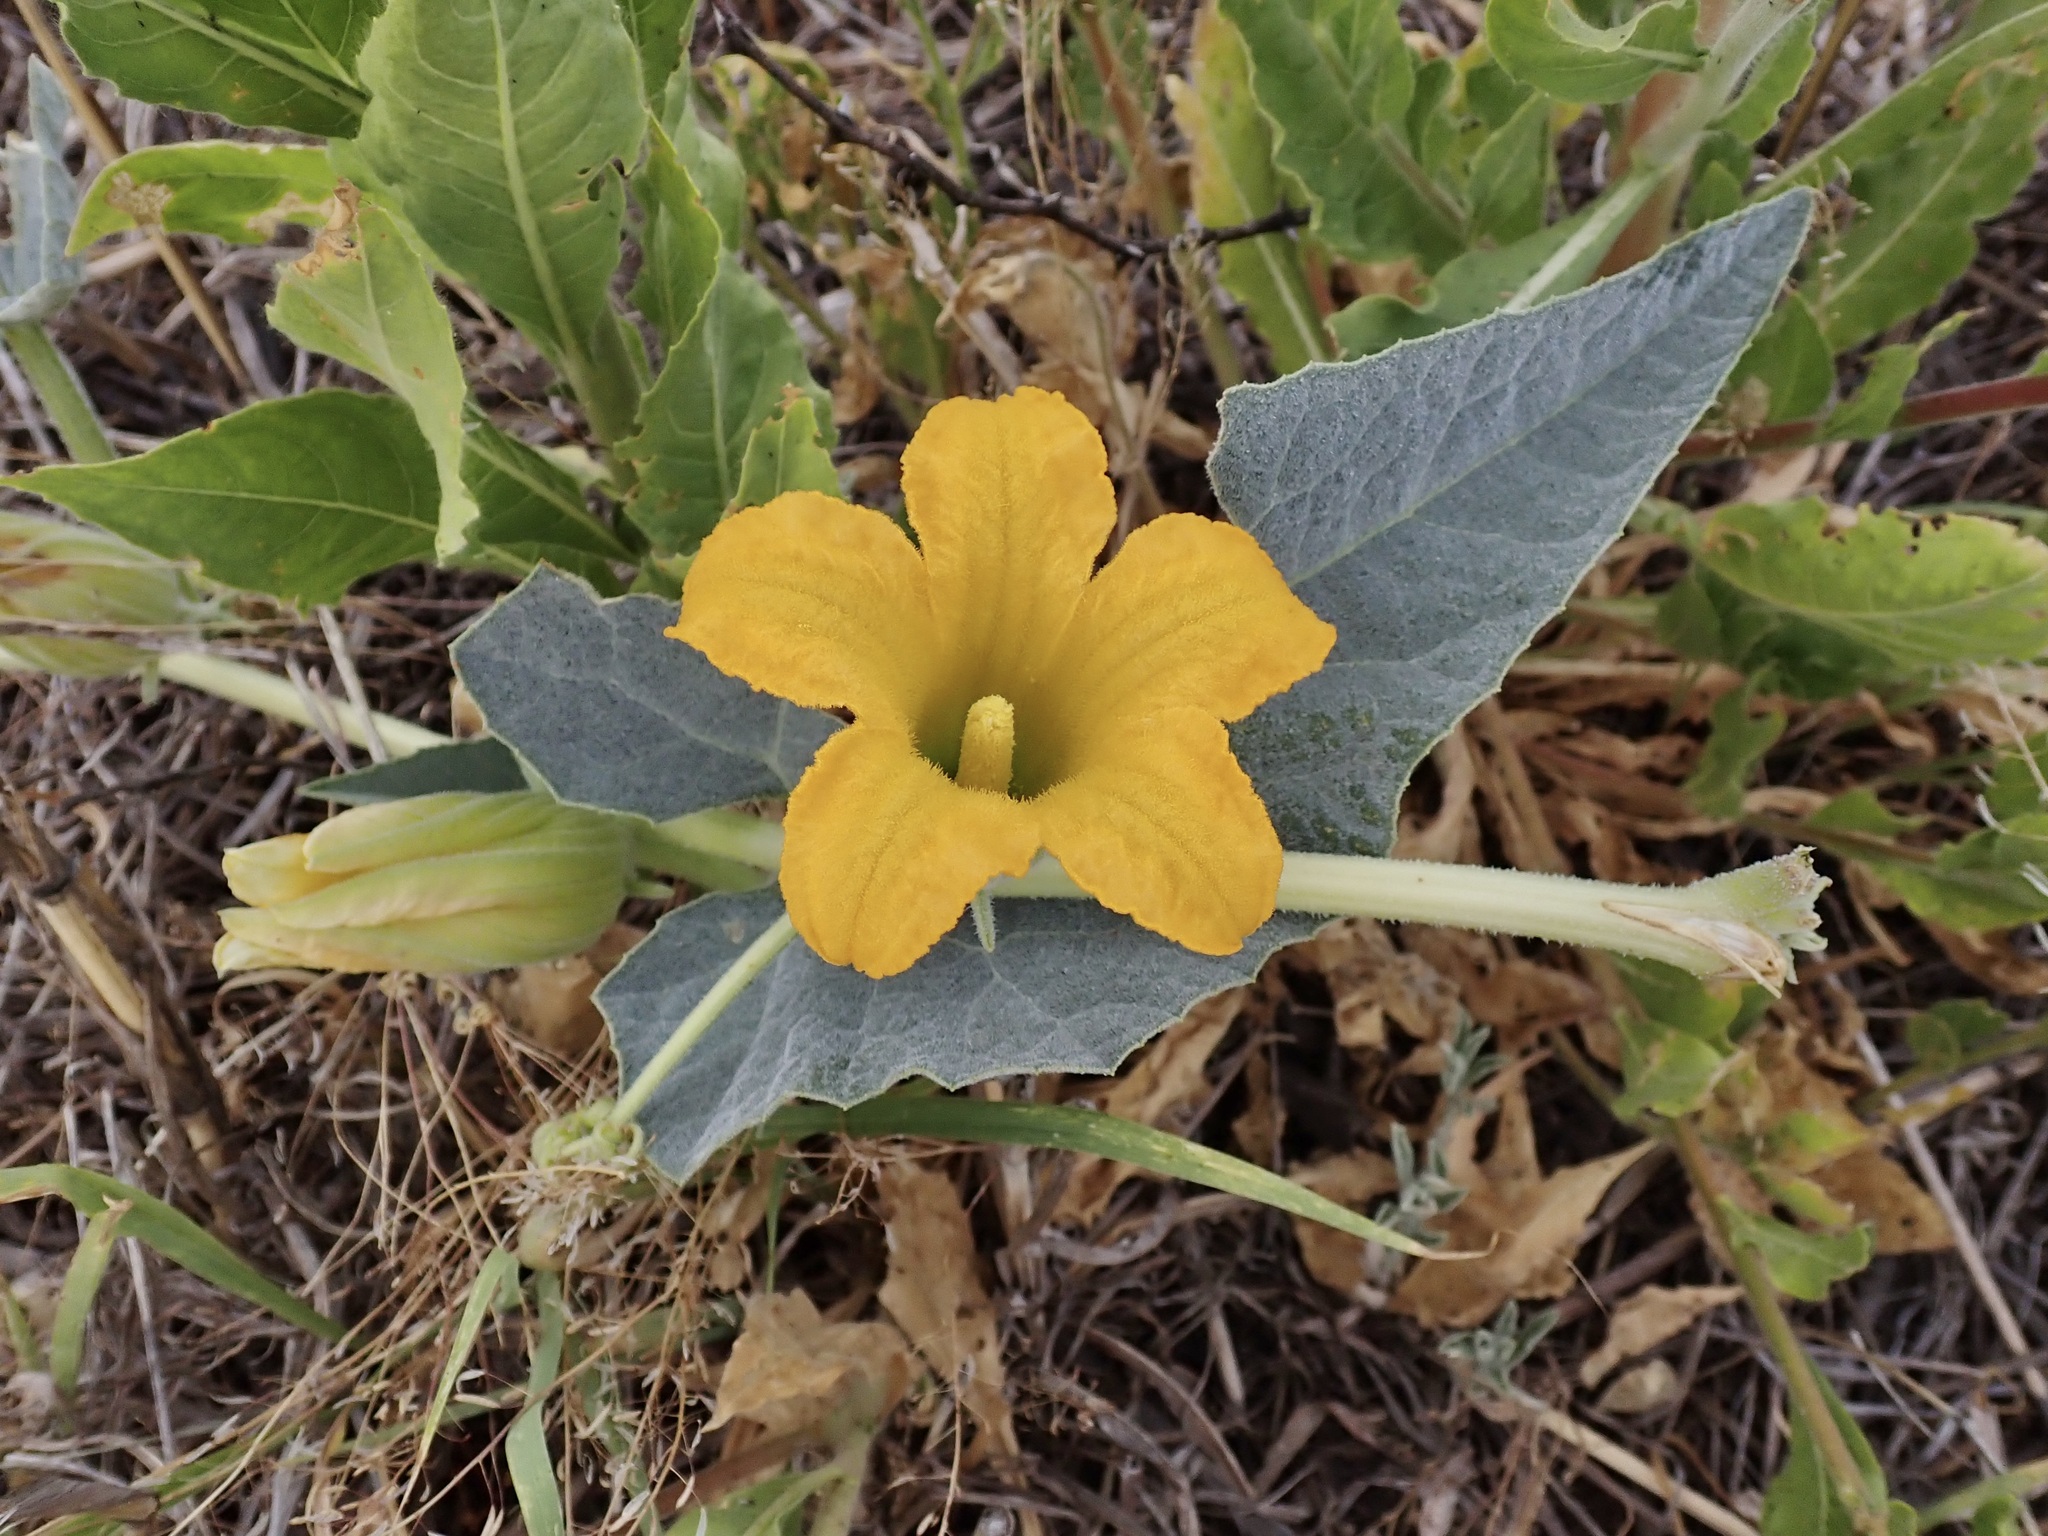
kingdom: Plantae
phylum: Tracheophyta
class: Magnoliopsida
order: Cucurbitales
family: Cucurbitaceae
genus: Cucurbita
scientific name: Cucurbita foetidissima
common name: Buffalo gourd
